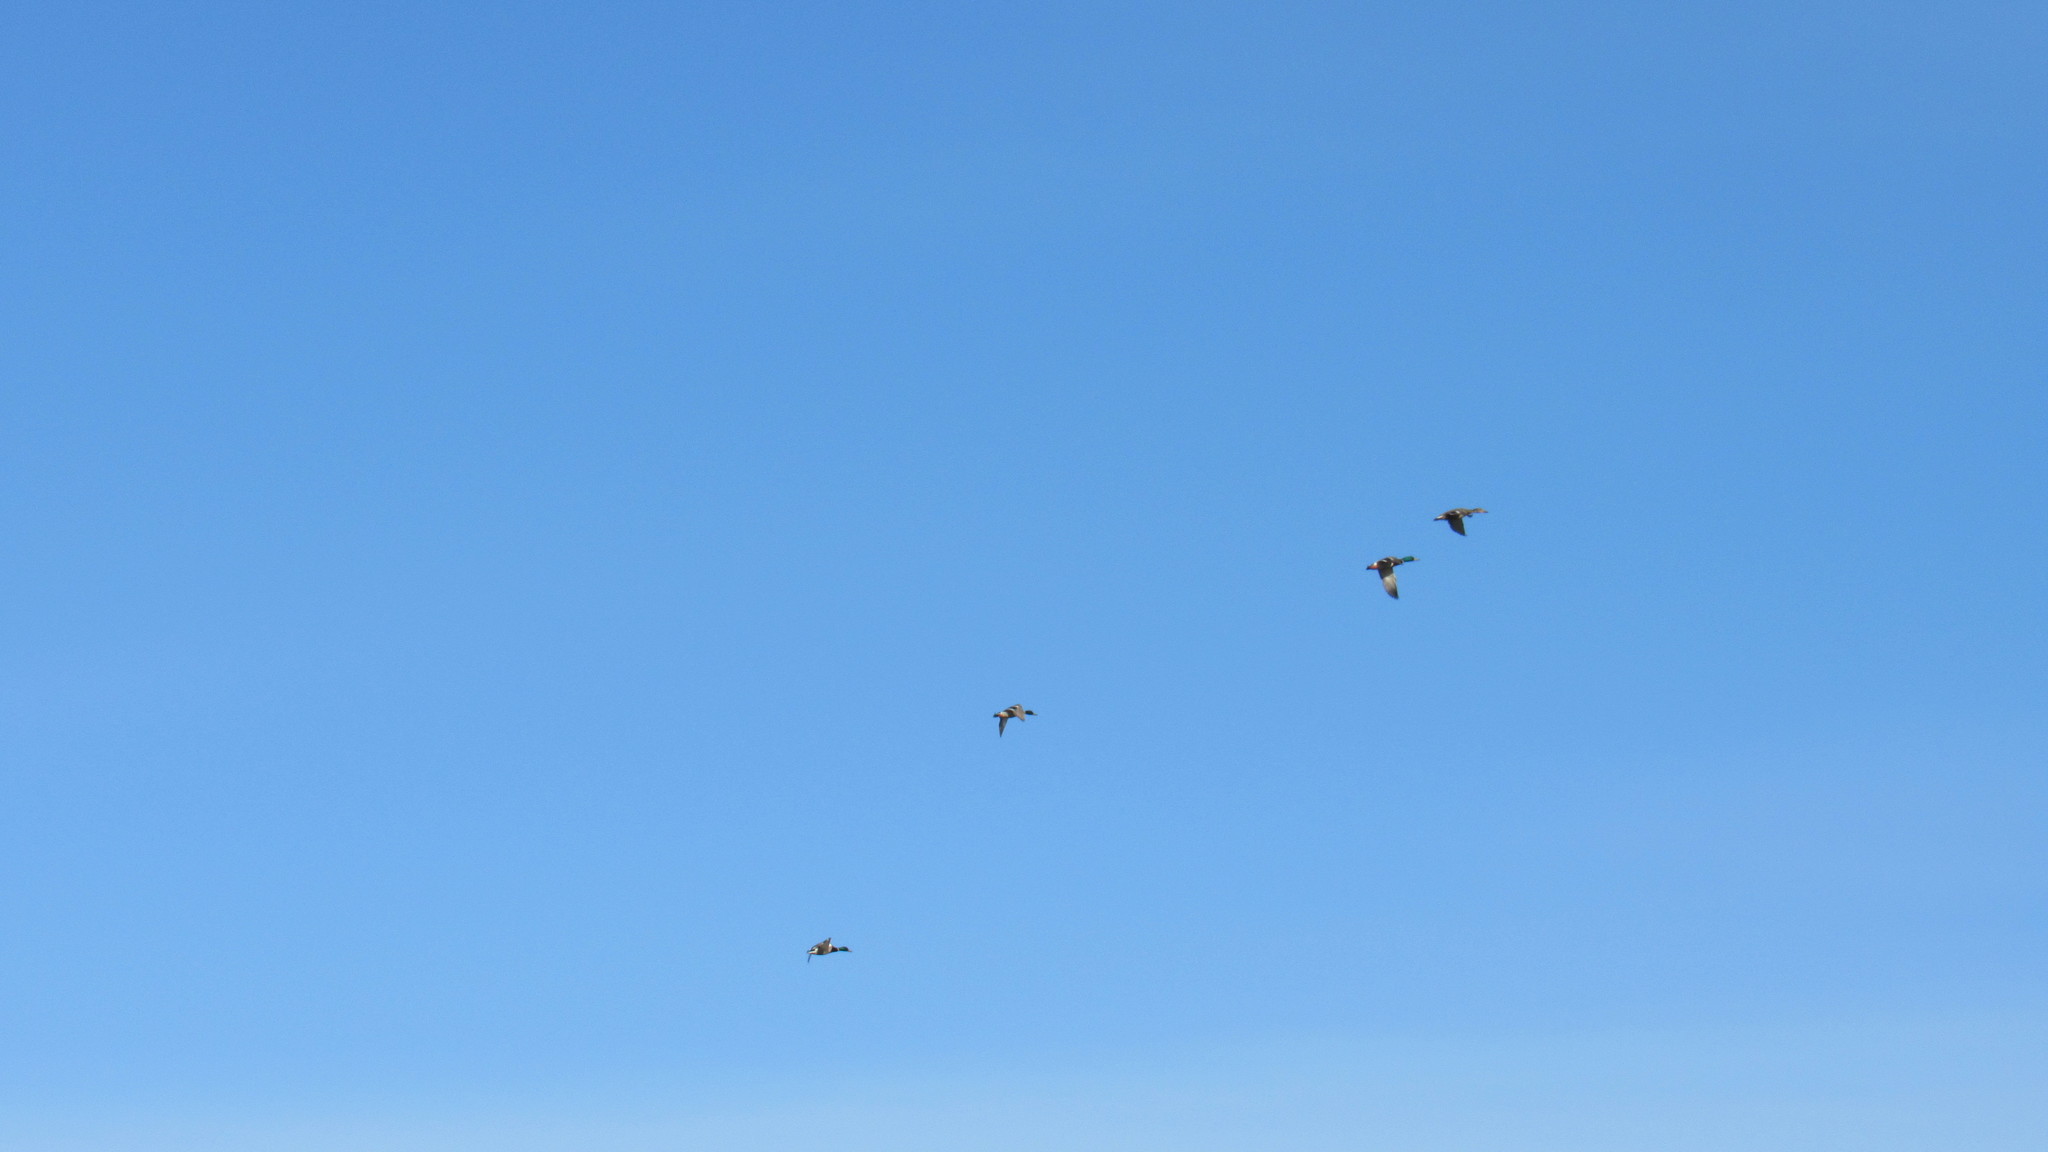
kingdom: Animalia
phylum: Chordata
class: Aves
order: Anseriformes
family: Anatidae
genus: Anas
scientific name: Anas platyrhynchos
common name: Mallard
